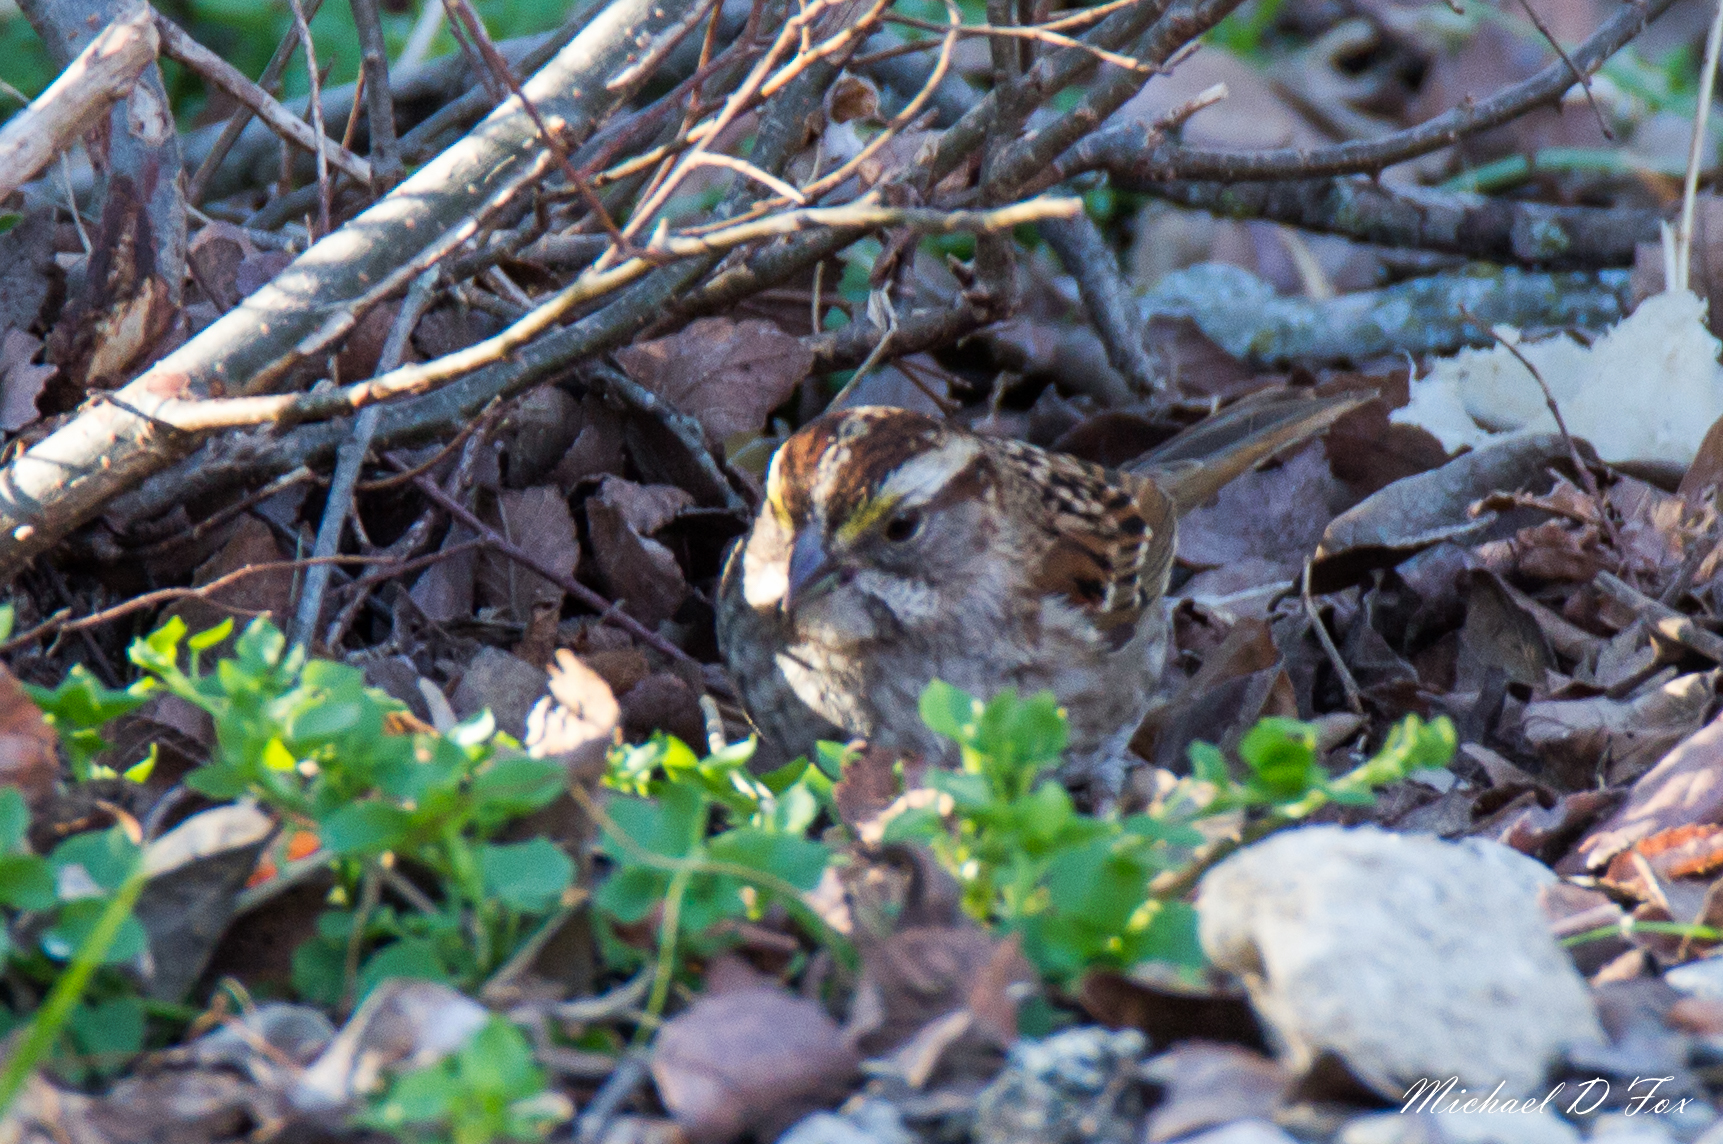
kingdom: Animalia
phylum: Chordata
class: Aves
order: Passeriformes
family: Passerellidae
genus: Zonotrichia
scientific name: Zonotrichia albicollis
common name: White-throated sparrow
